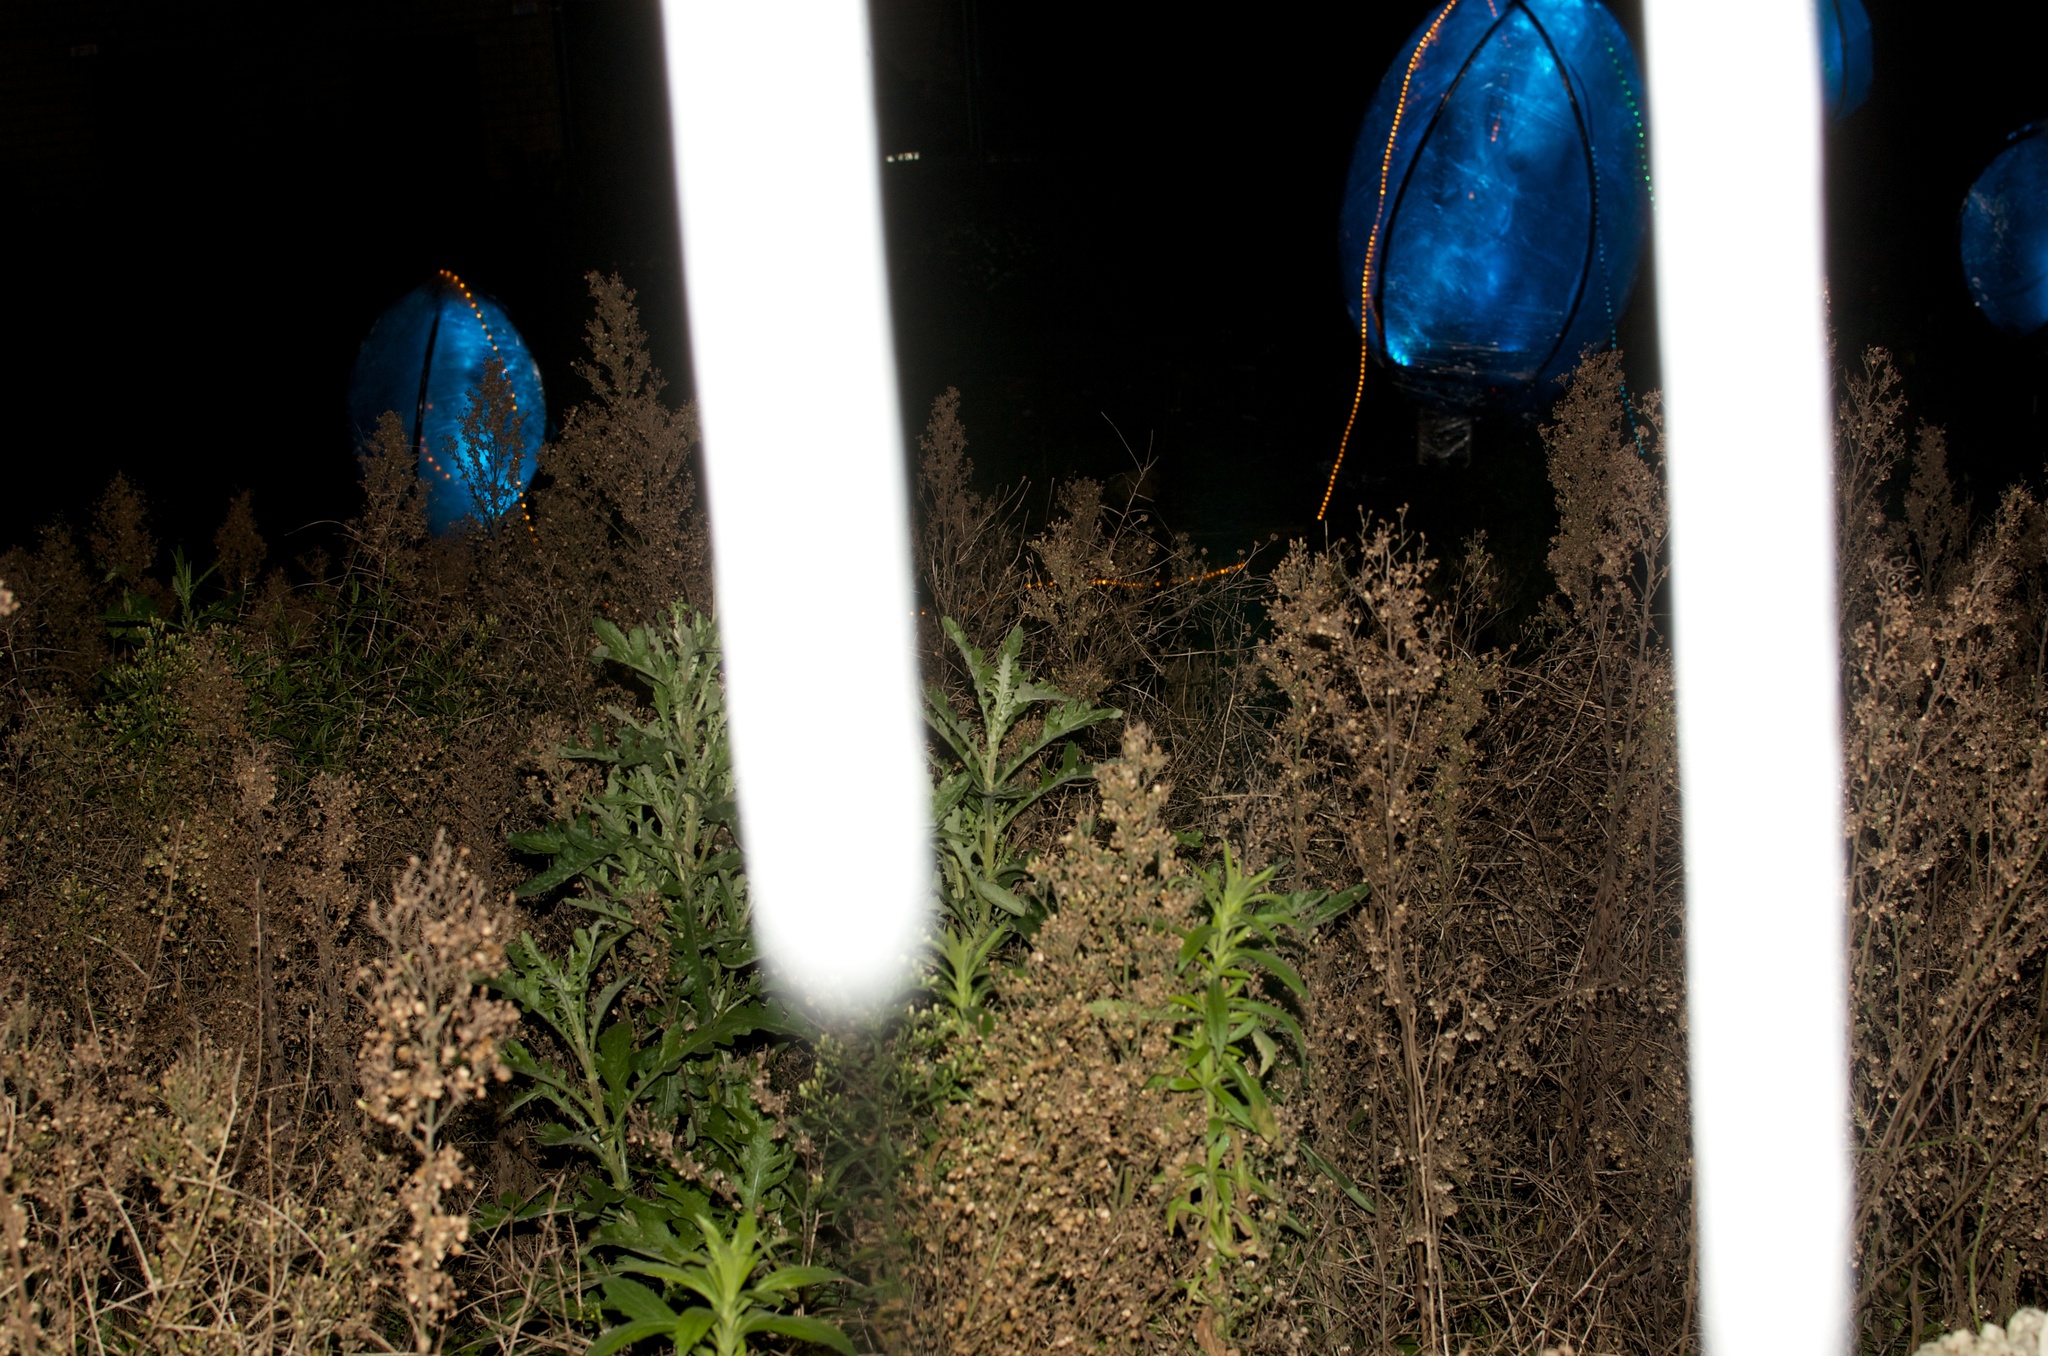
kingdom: Plantae
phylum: Tracheophyta
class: Magnoliopsida
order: Asterales
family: Asteraceae
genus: Senecio
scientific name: Senecio glomeratus
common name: Cutleaf burnweed
